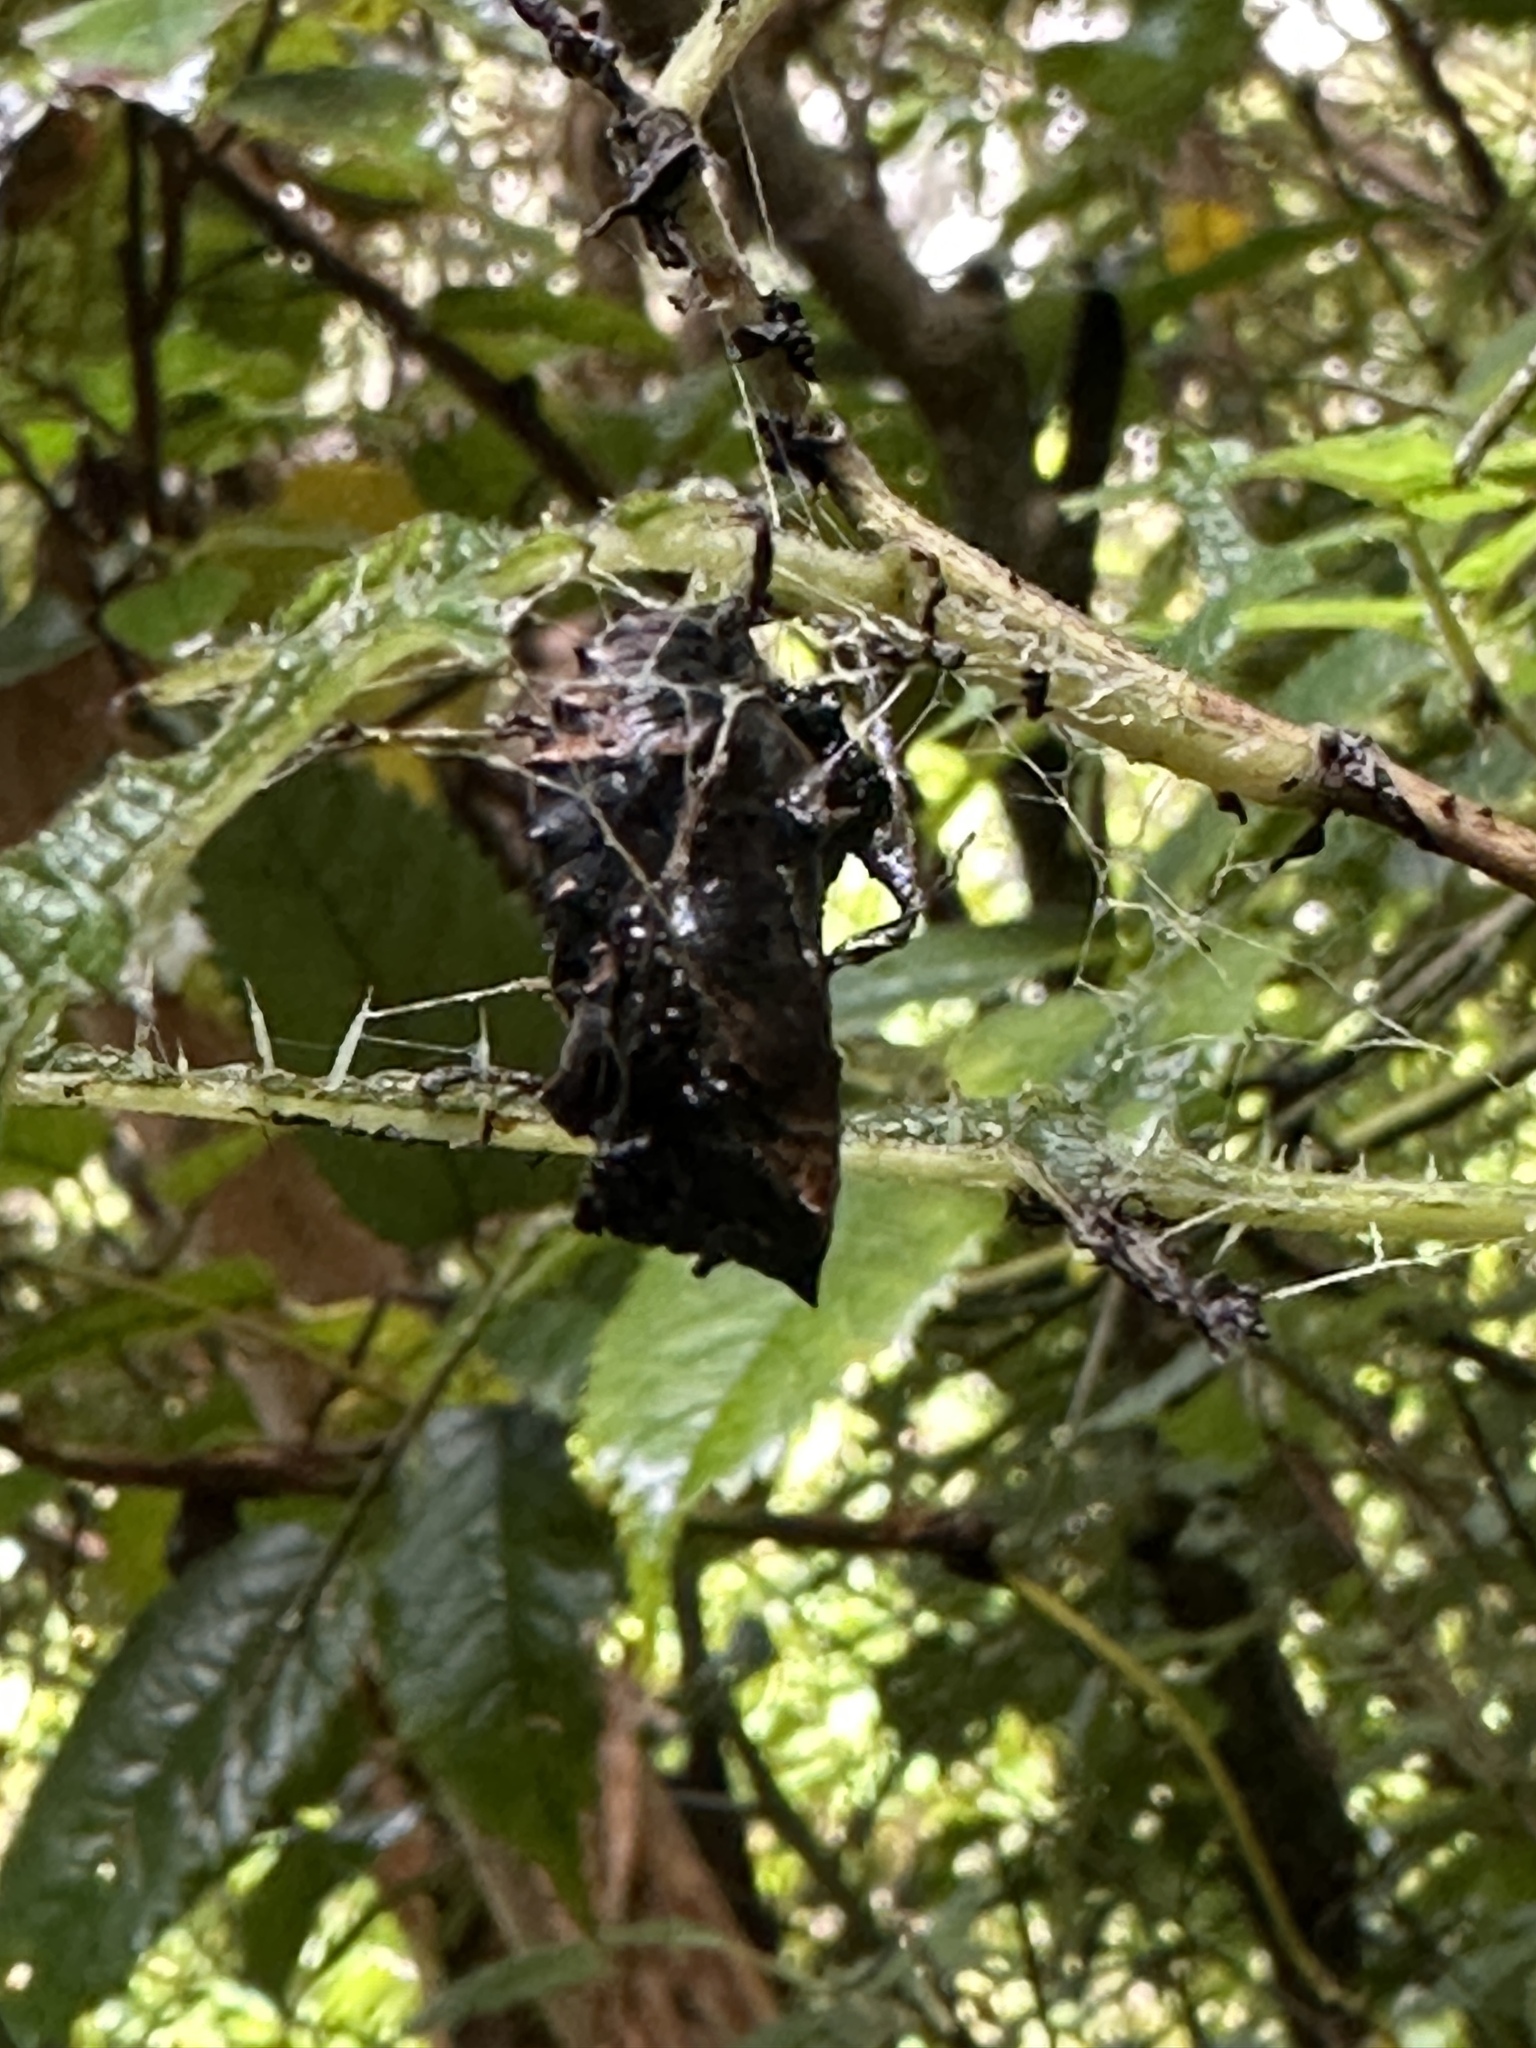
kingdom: Animalia
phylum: Arthropoda
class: Insecta
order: Lepidoptera
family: Nymphalidae
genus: Vanessa
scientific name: Vanessa gonerilla
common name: New zealand red admiral
